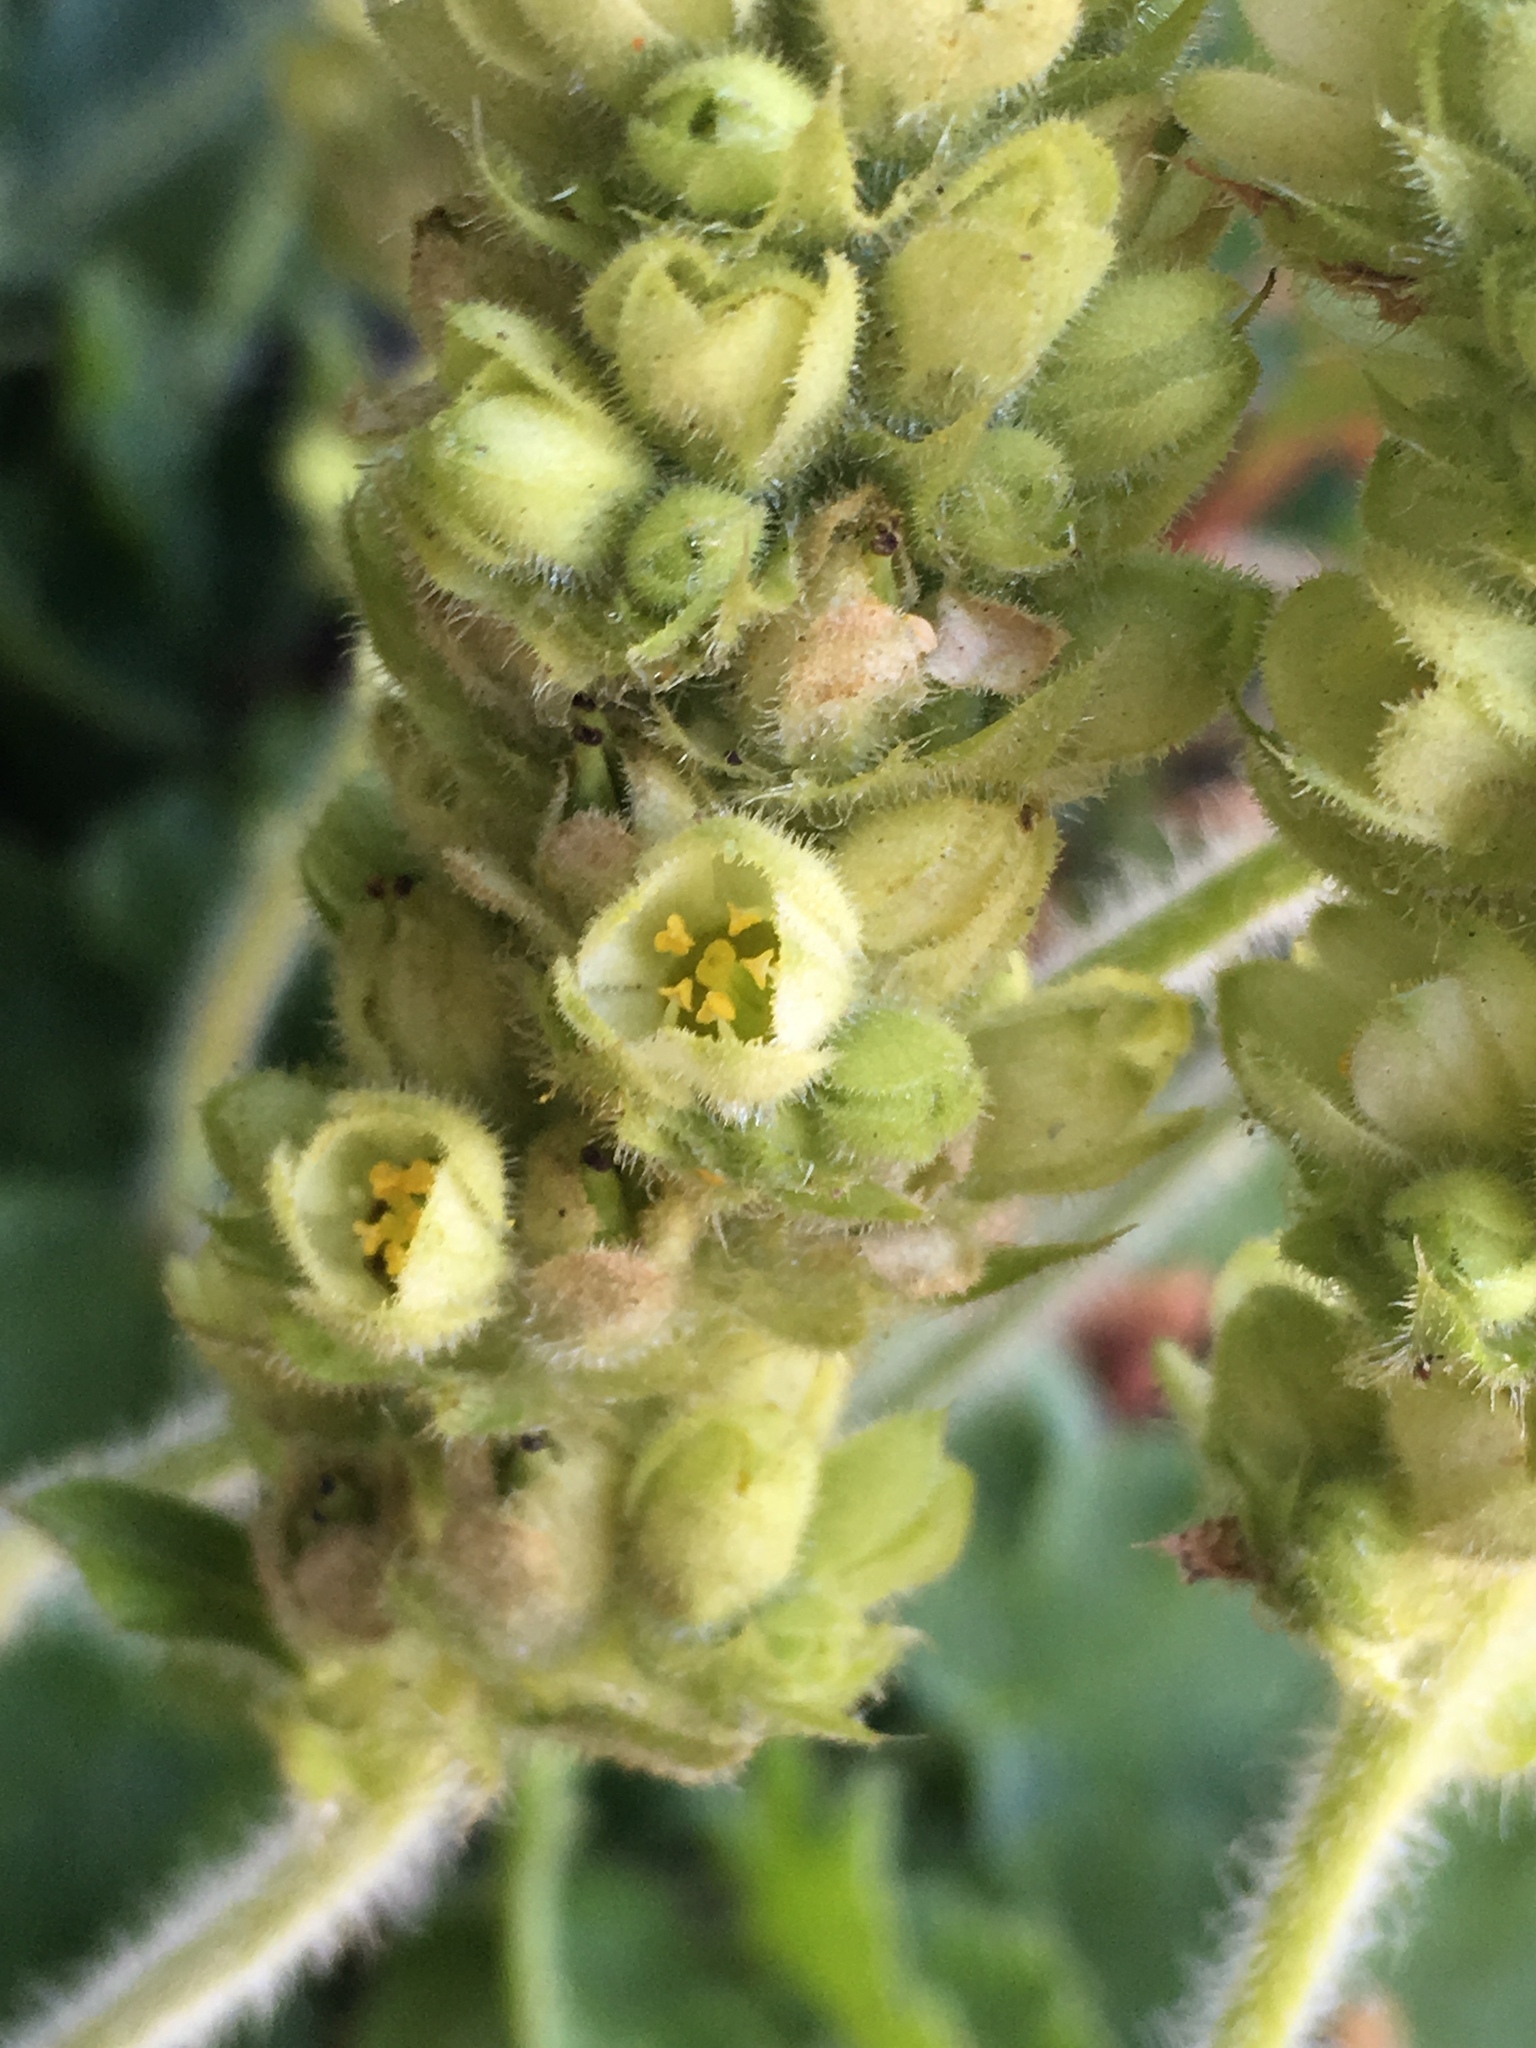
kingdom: Plantae
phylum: Tracheophyta
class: Magnoliopsida
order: Saxifragales
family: Saxifragaceae
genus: Heuchera
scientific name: Heuchera cylindrica
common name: Mat alumroot
